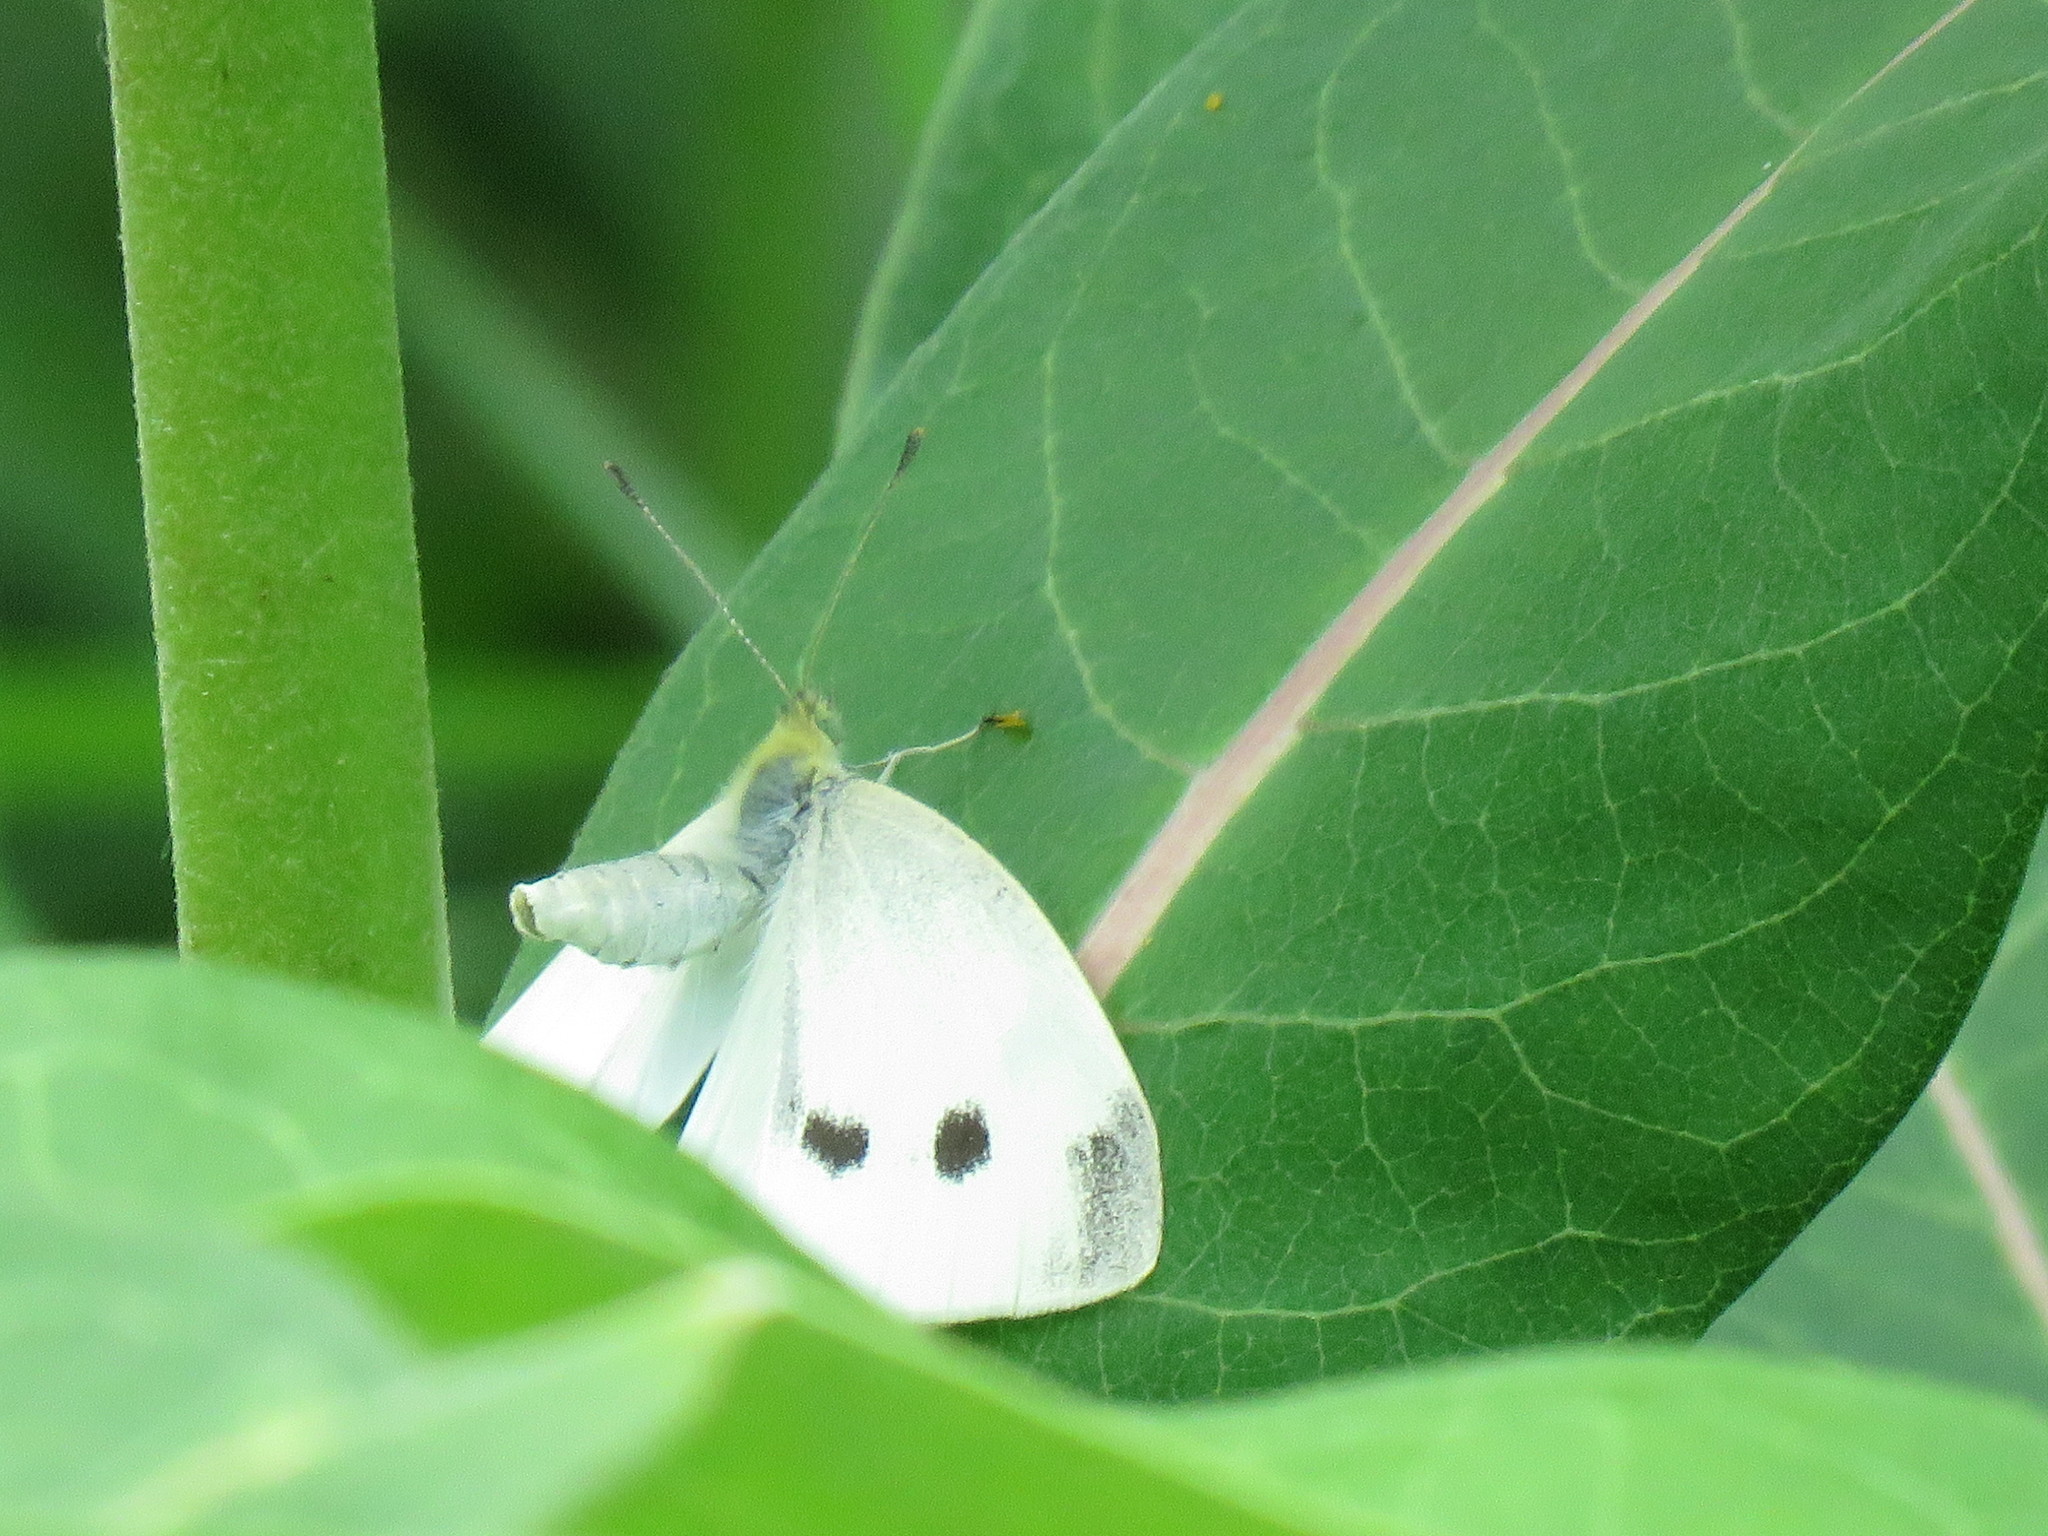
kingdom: Animalia
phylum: Arthropoda
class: Insecta
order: Lepidoptera
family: Pieridae
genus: Pieris
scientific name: Pieris rapae
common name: Small white
